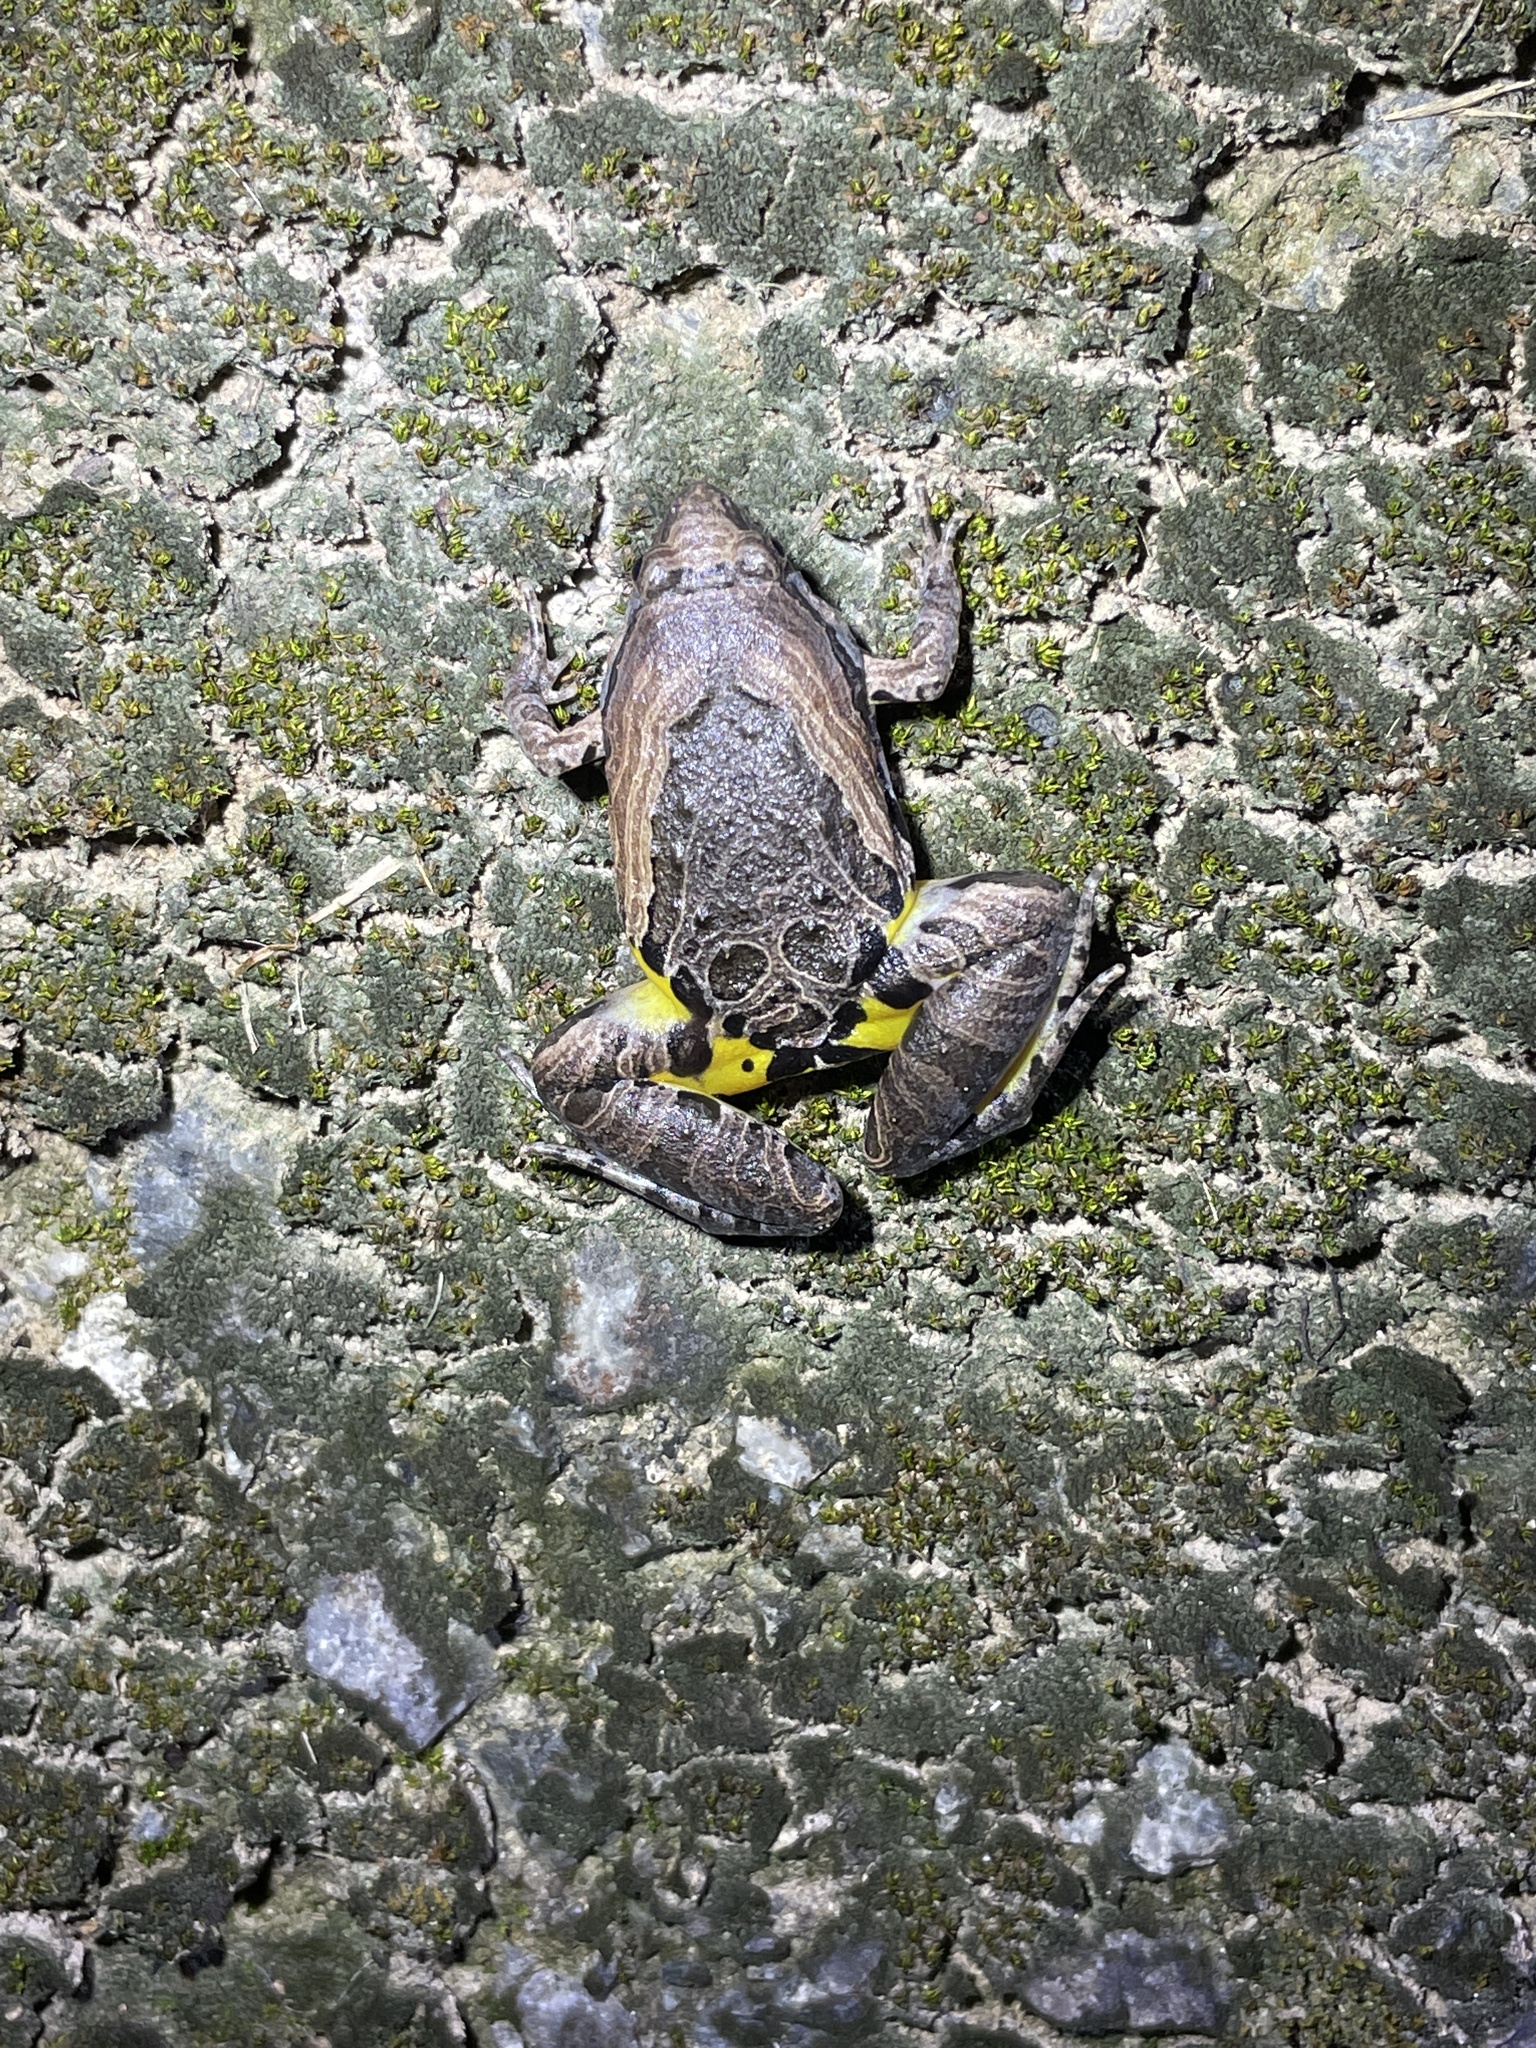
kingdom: Animalia
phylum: Chordata
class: Amphibia
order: Anura
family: Microhylidae
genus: Microhyla
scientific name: Microhyla pulchra
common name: Beautiful pygmy frog
